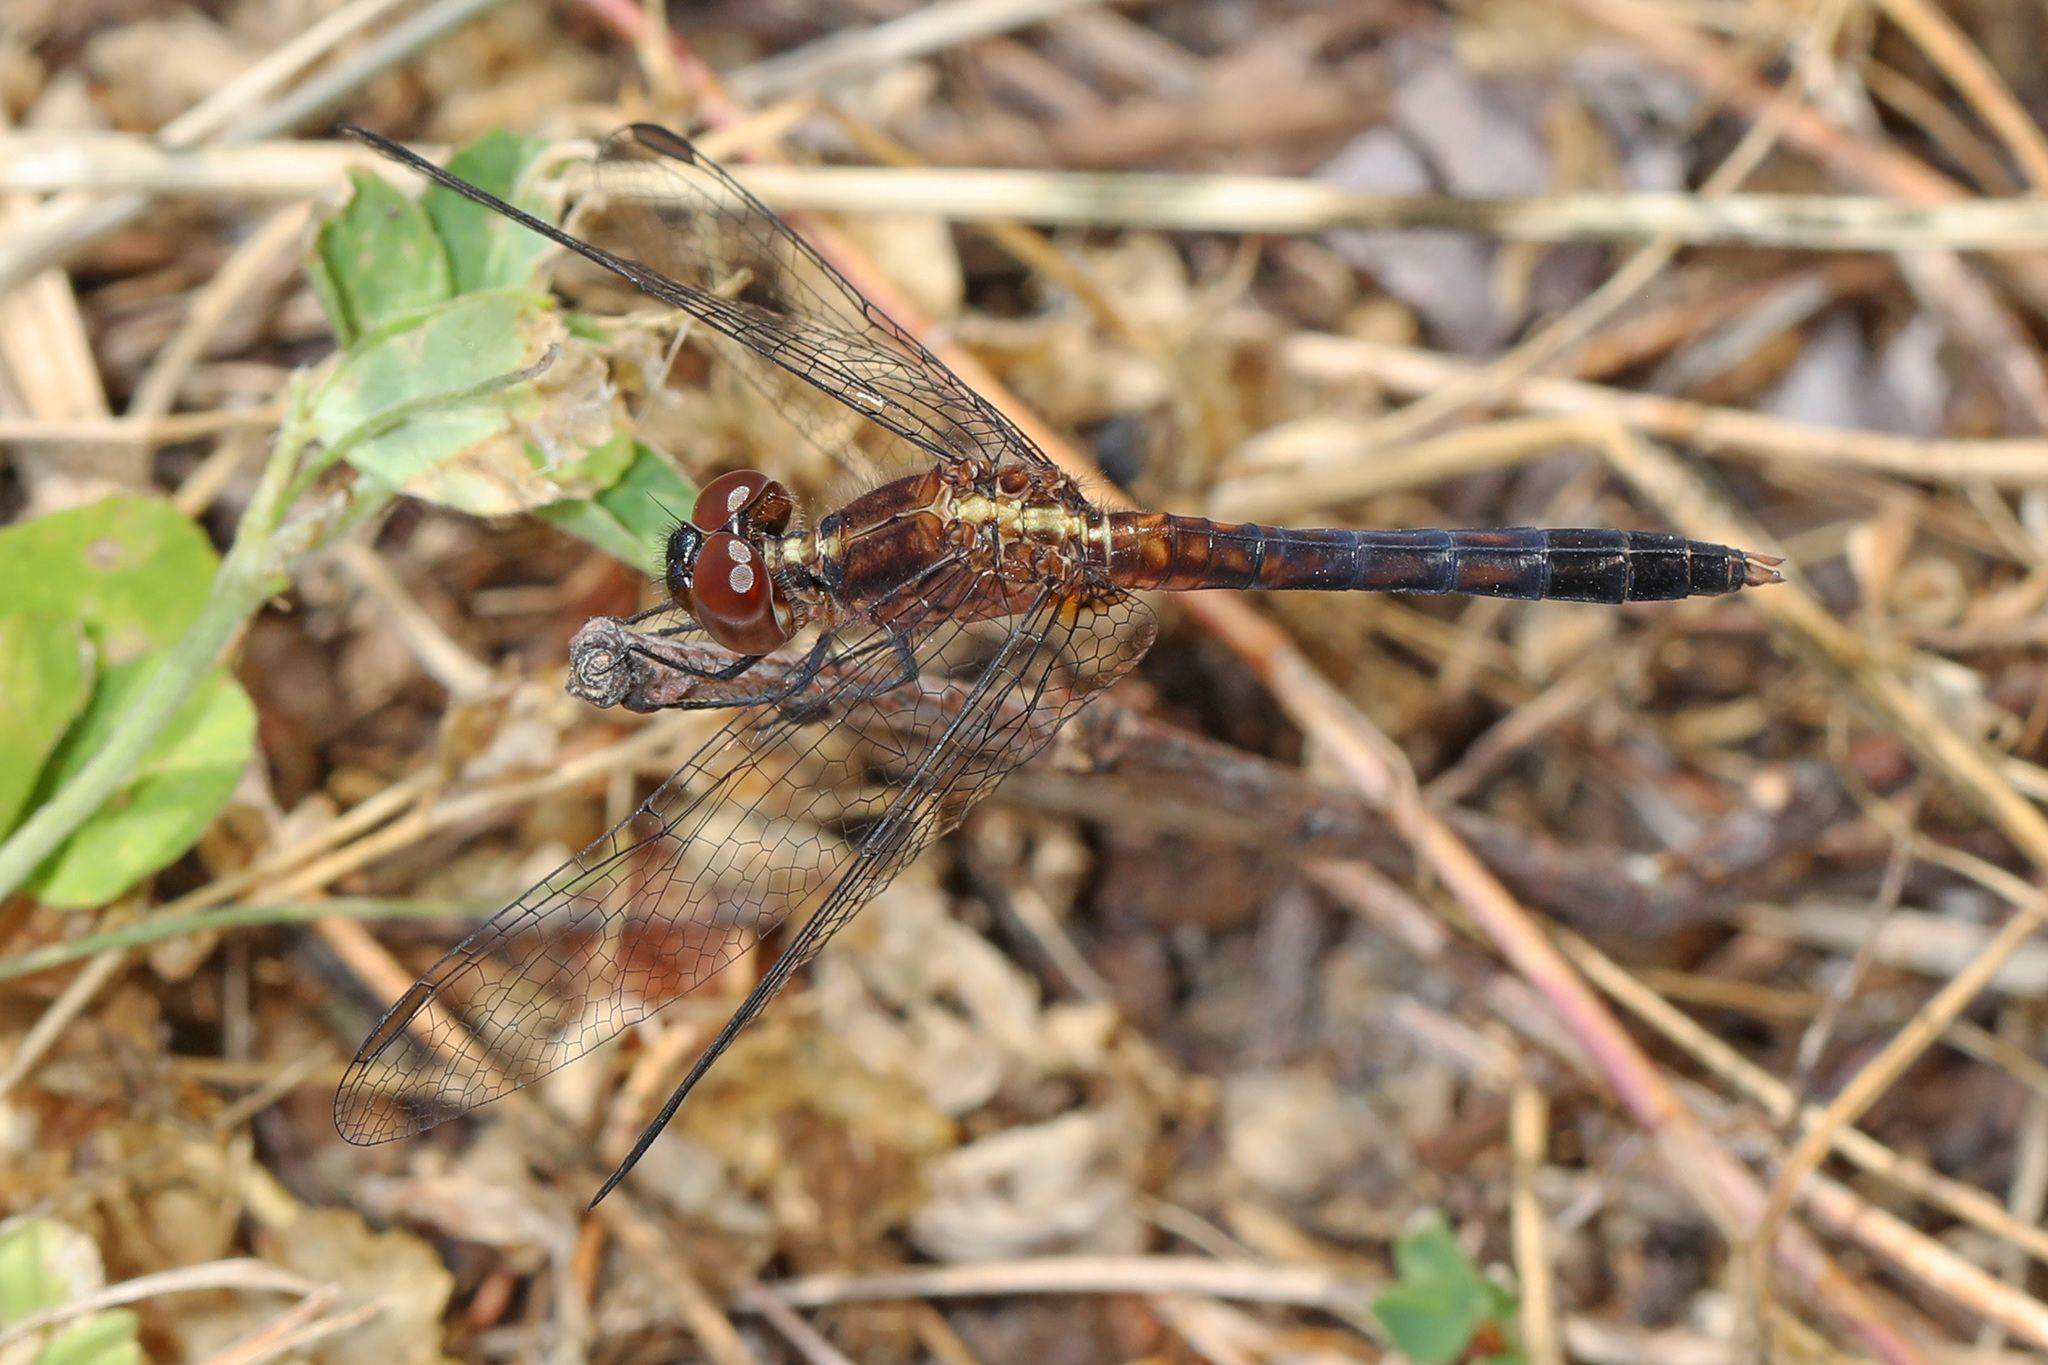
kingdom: Animalia
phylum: Arthropoda
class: Insecta
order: Odonata
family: Libellulidae
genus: Erythrodiplax
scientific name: Erythrodiplax minuscula
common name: Little blue dragonlet
